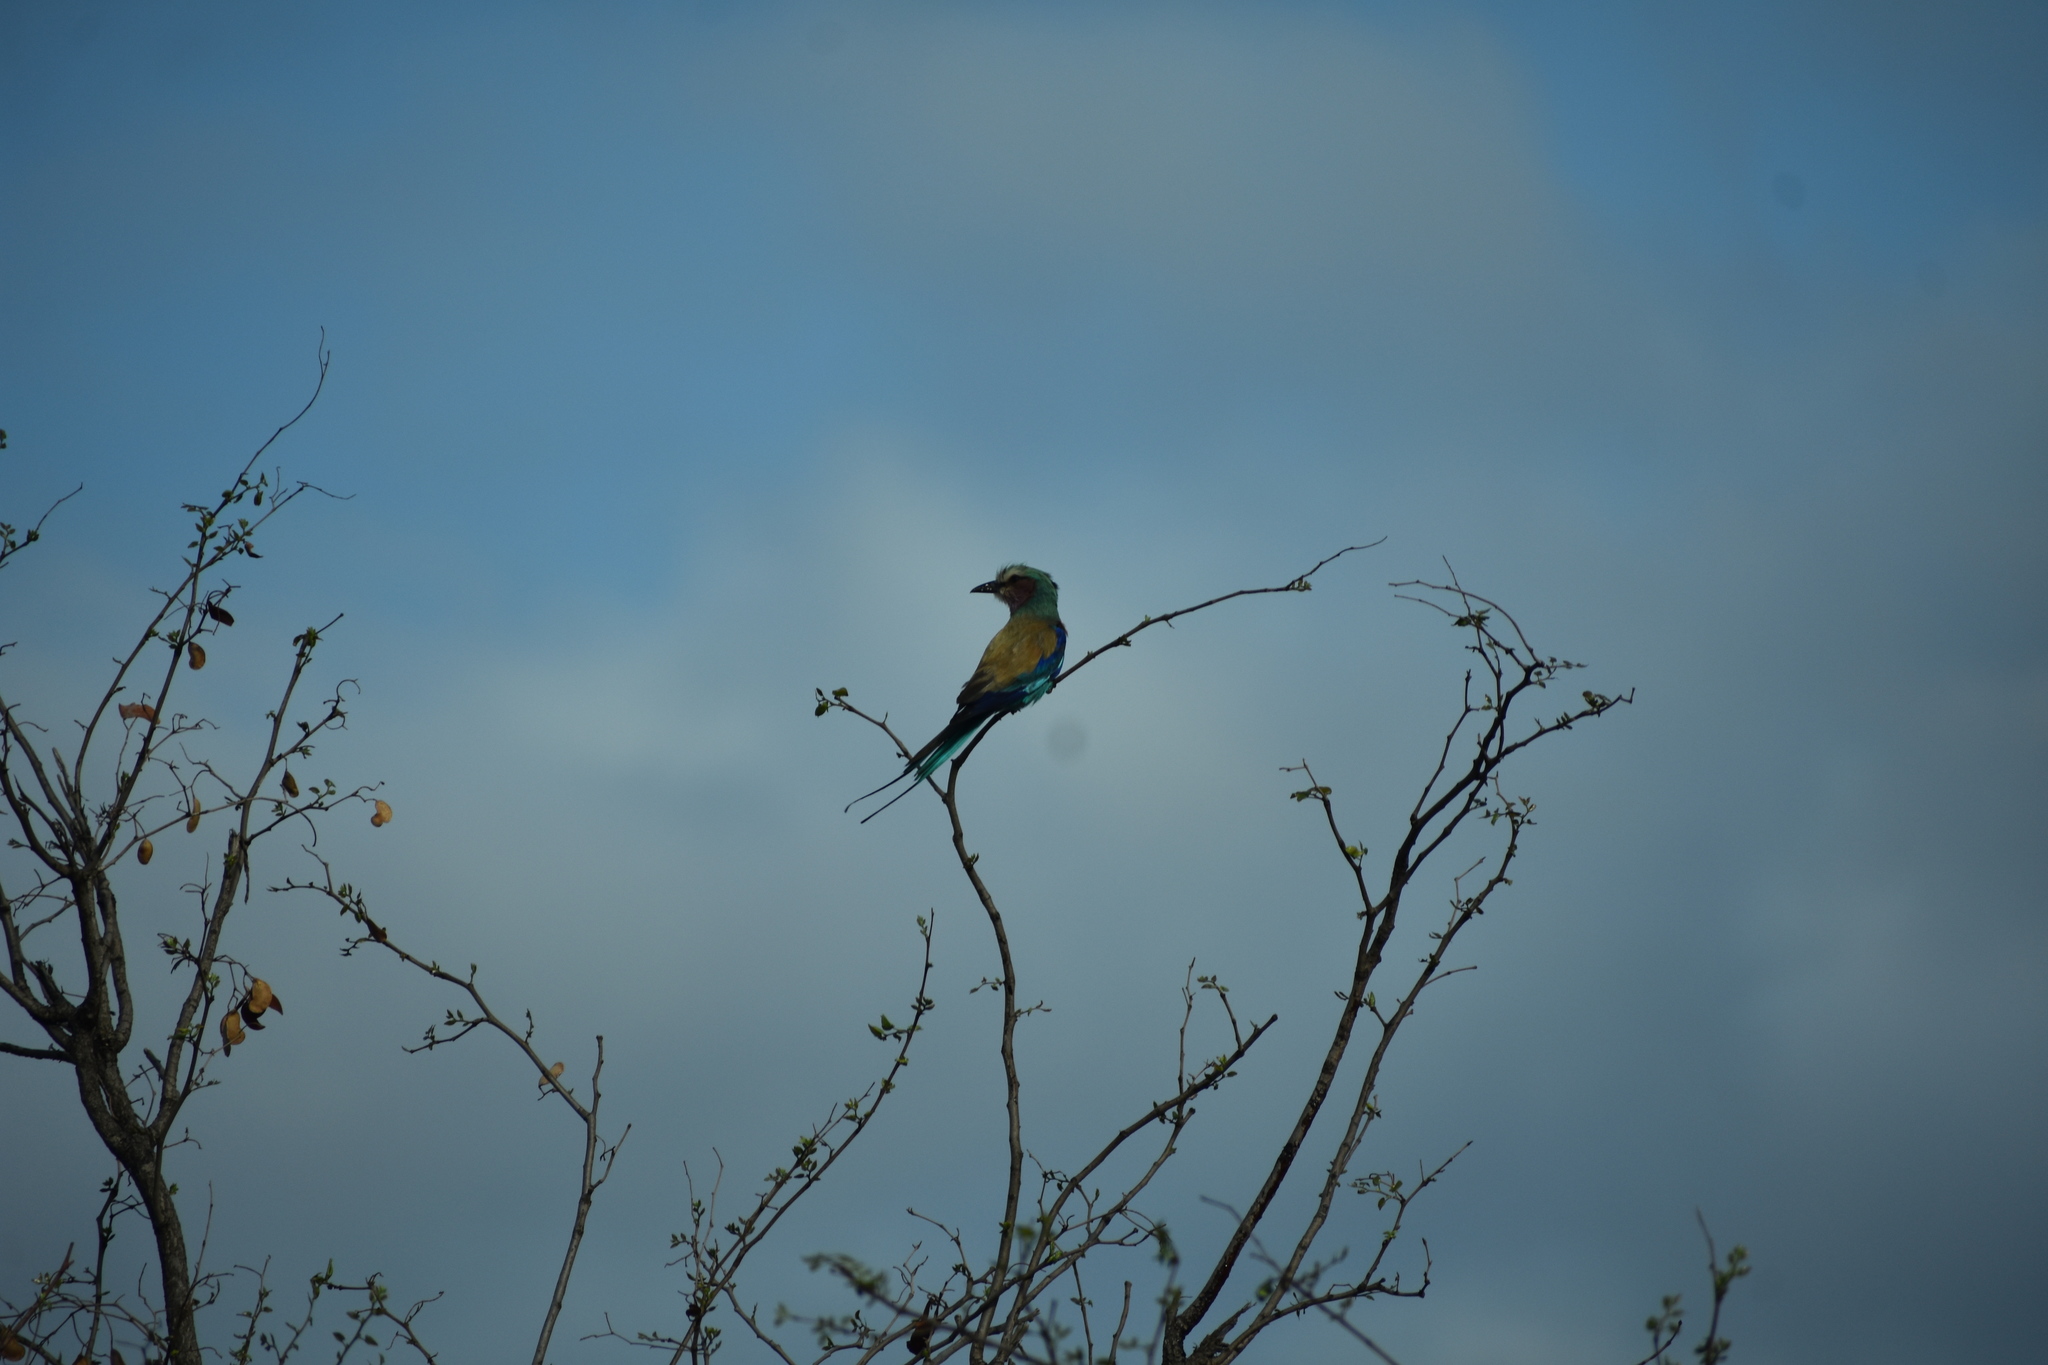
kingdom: Animalia
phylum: Chordata
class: Aves
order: Coraciiformes
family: Coraciidae
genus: Coracias
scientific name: Coracias caudatus
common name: Lilac-breasted roller
